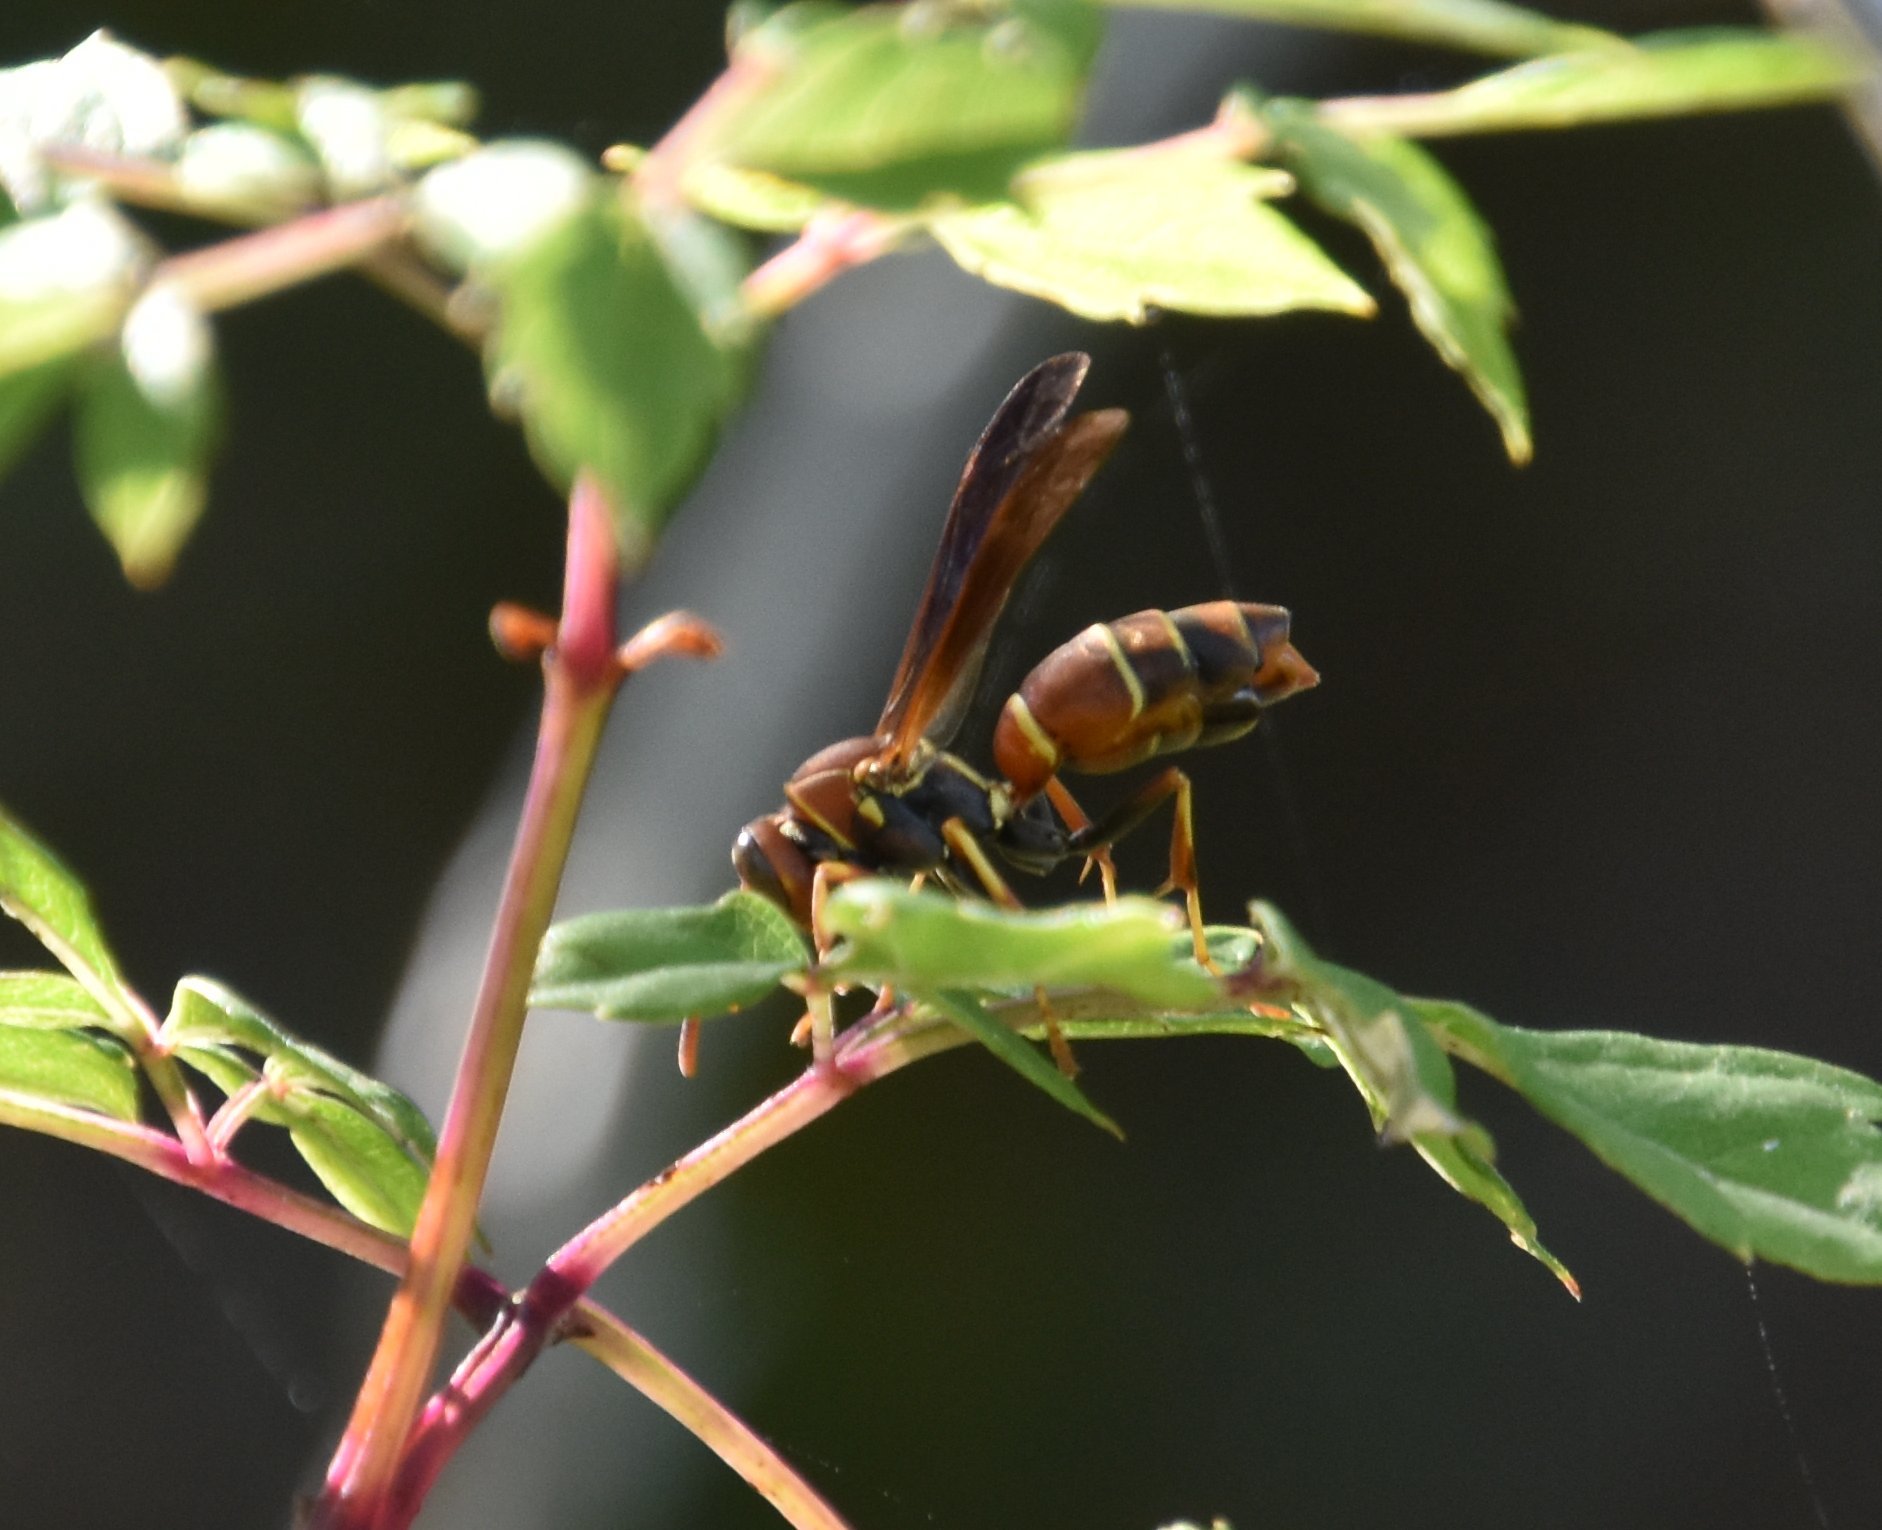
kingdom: Animalia
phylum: Arthropoda
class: Insecta
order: Hymenoptera
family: Eumenidae
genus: Polistes
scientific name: Polistes dorsalis
